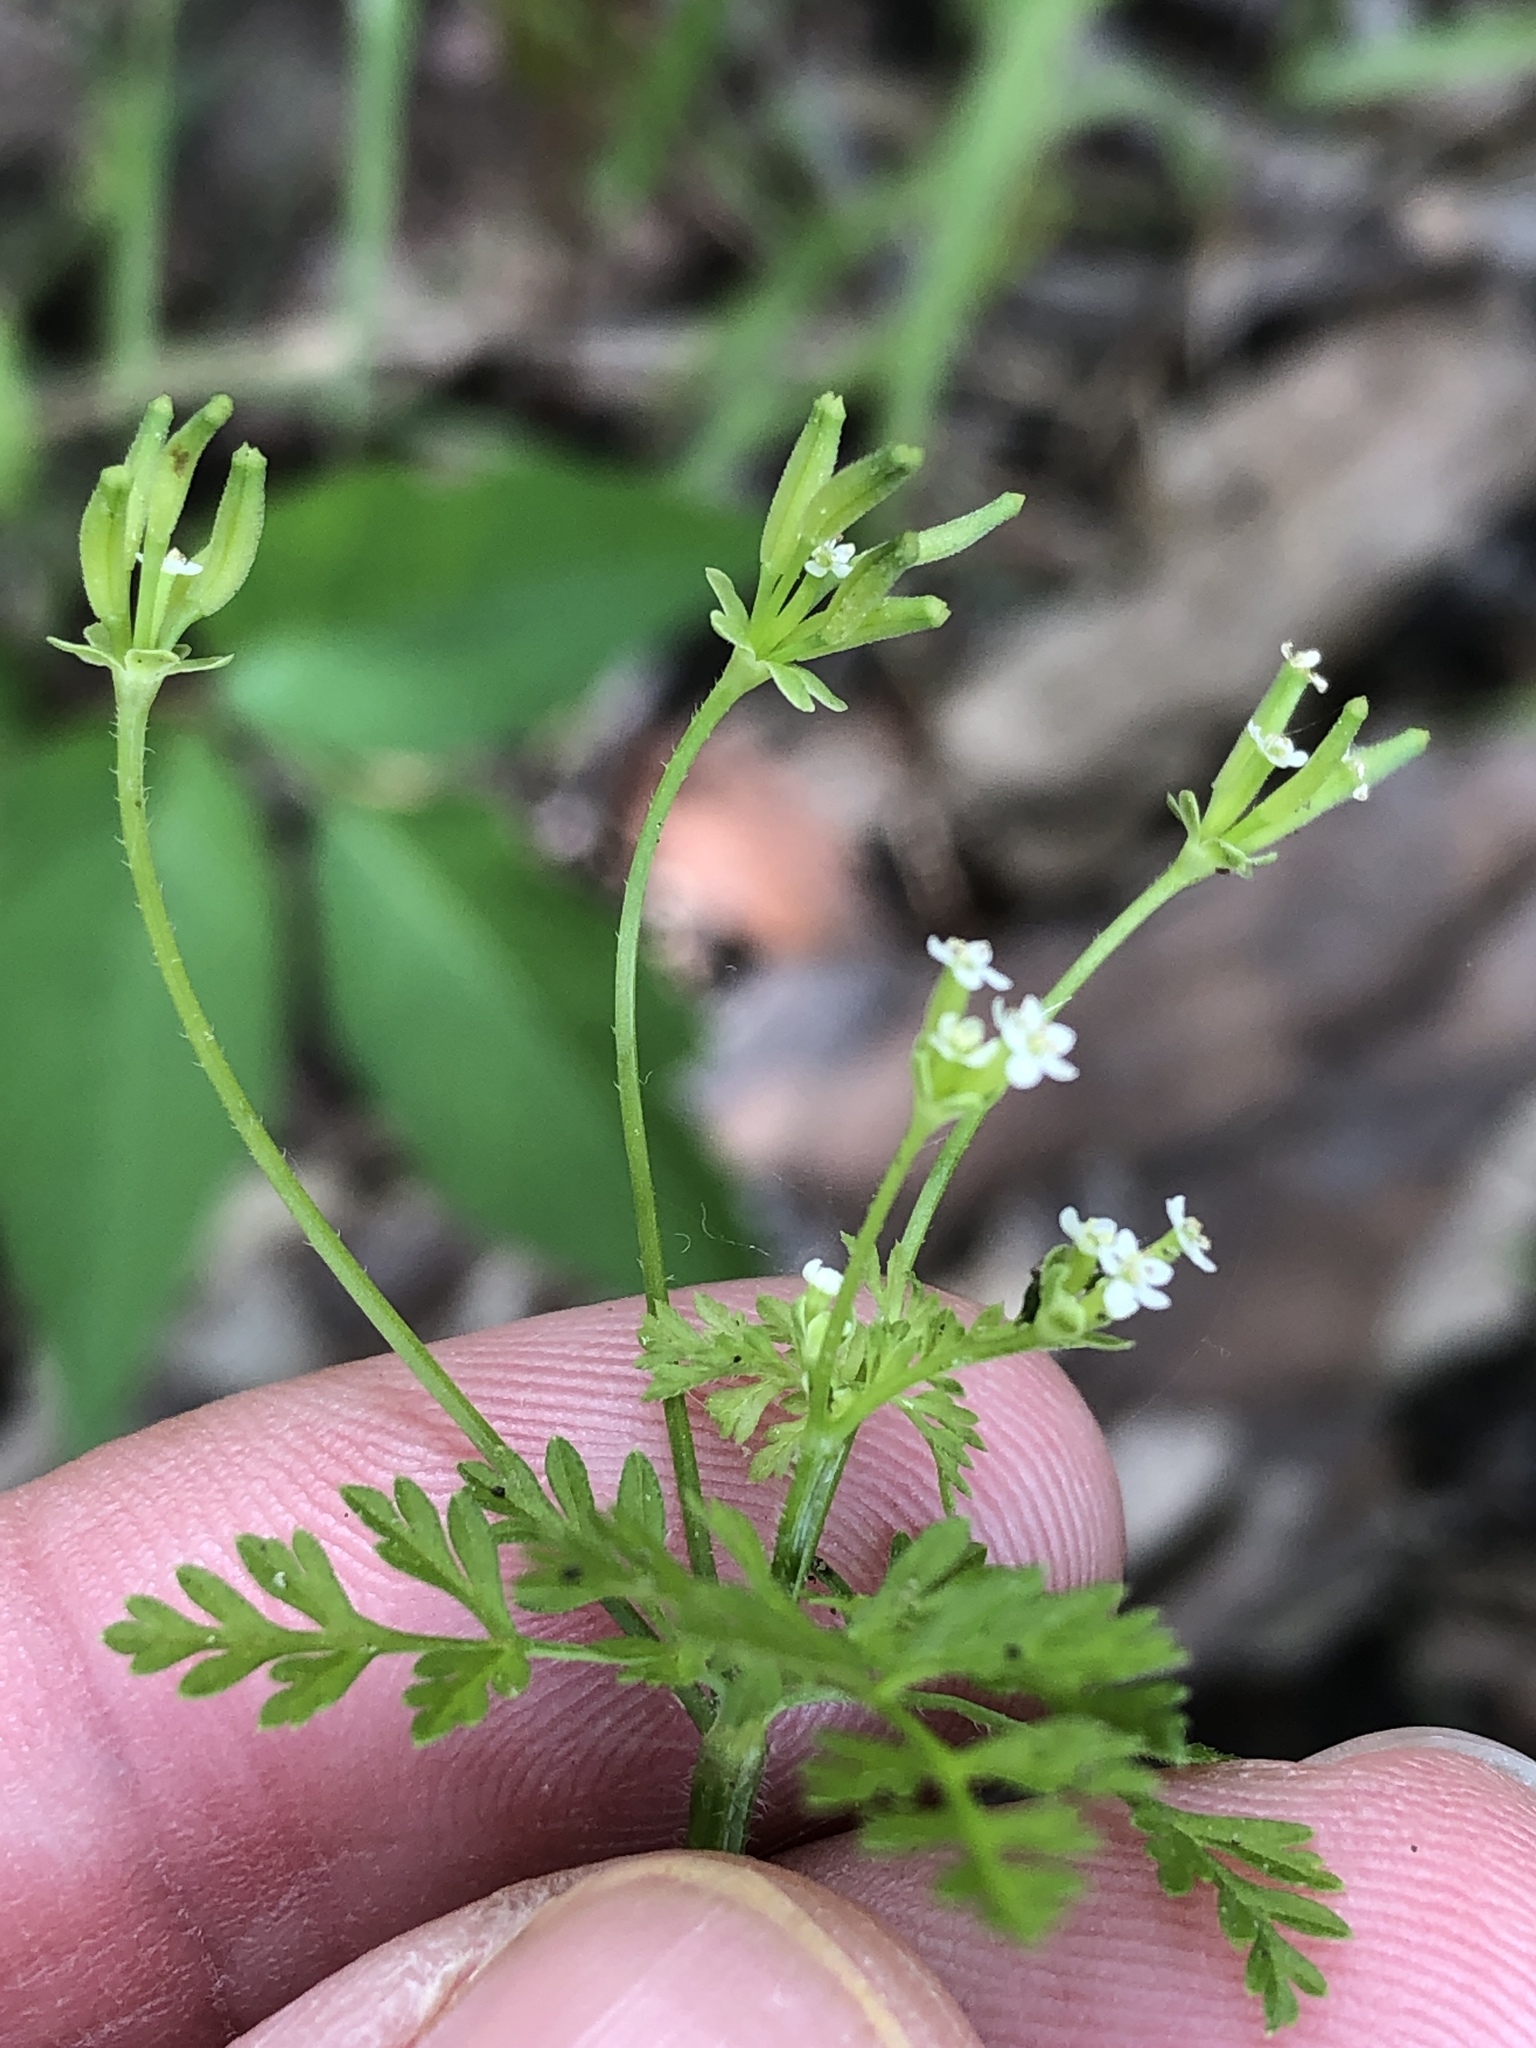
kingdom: Plantae
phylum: Tracheophyta
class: Magnoliopsida
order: Apiales
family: Apiaceae
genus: Chaerophyllum
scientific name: Chaerophyllum tainturieri
